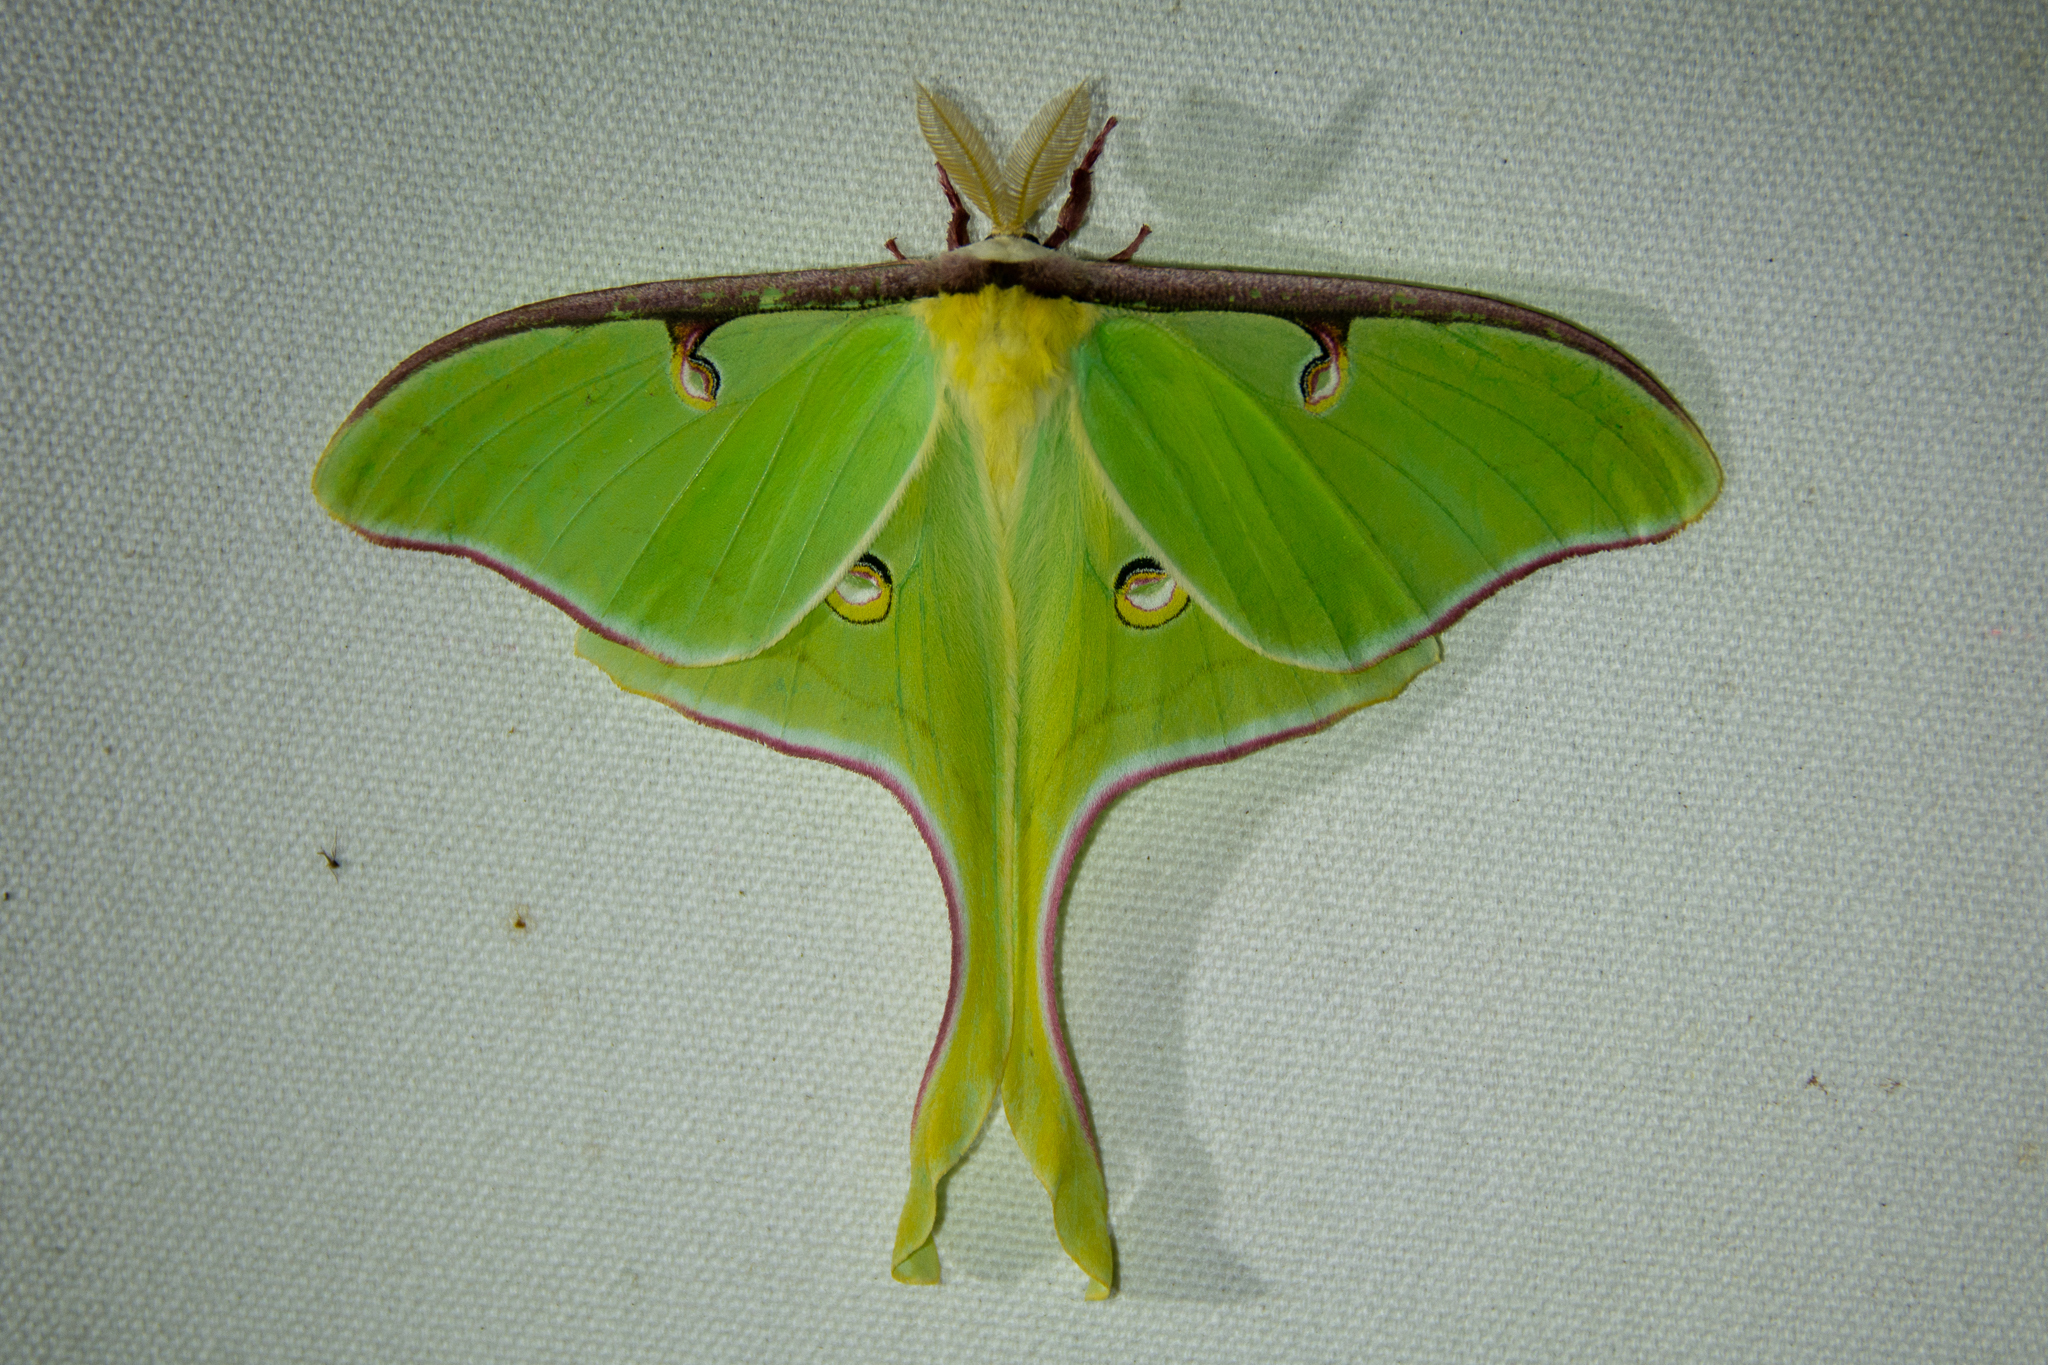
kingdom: Animalia
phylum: Arthropoda
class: Insecta
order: Lepidoptera
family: Saturniidae
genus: Actias
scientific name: Actias luna
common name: Luna moth
